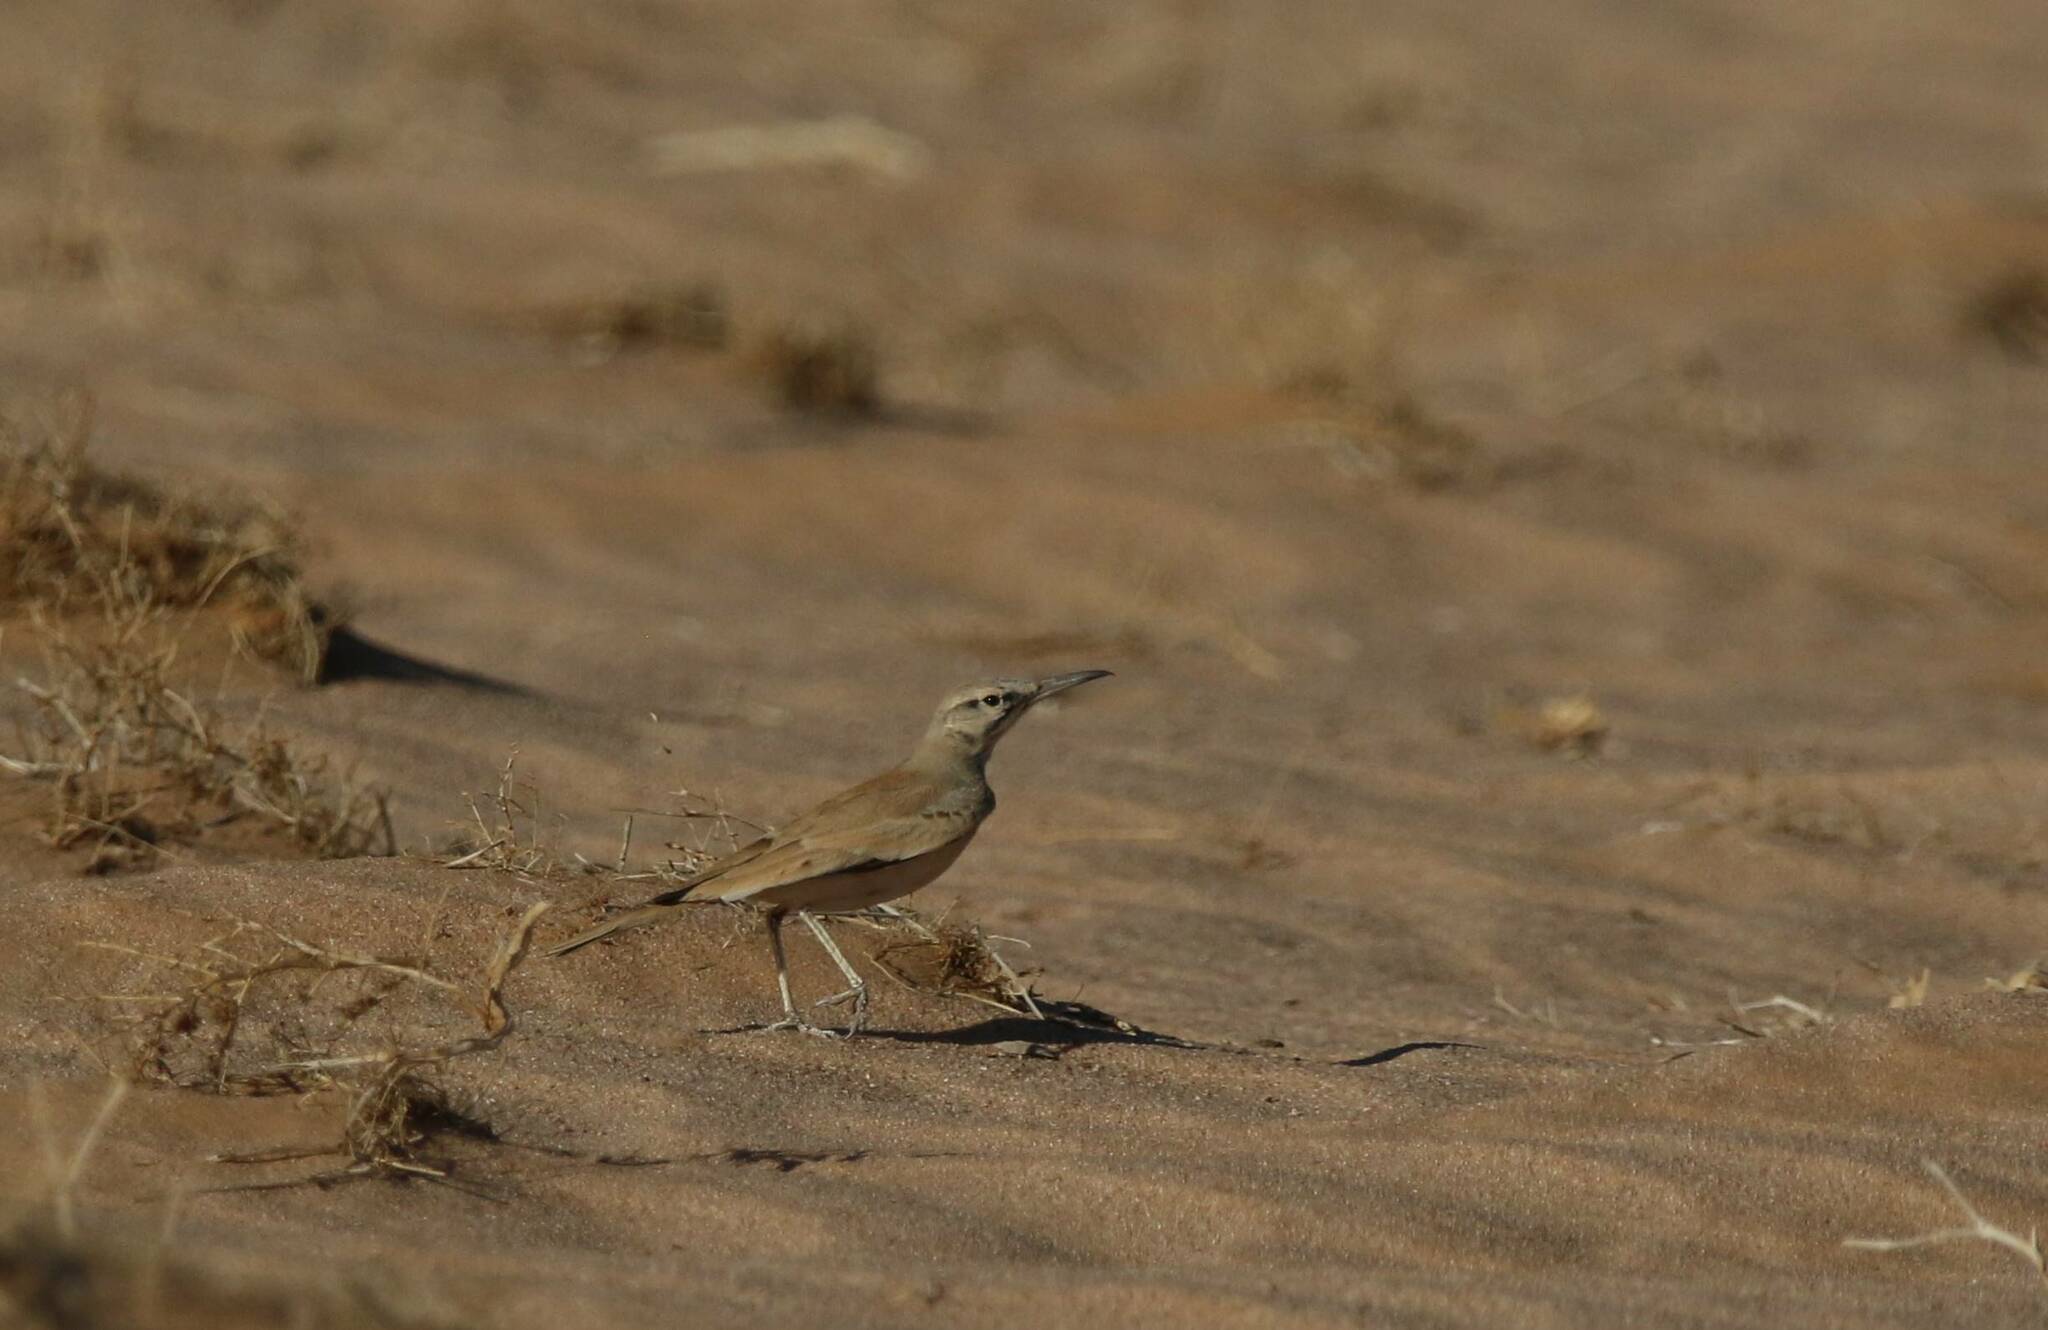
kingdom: Animalia
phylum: Chordata
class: Aves
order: Passeriformes
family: Alaudidae
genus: Alaemon
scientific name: Alaemon alaudipes
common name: Greater hoopoe-lark
